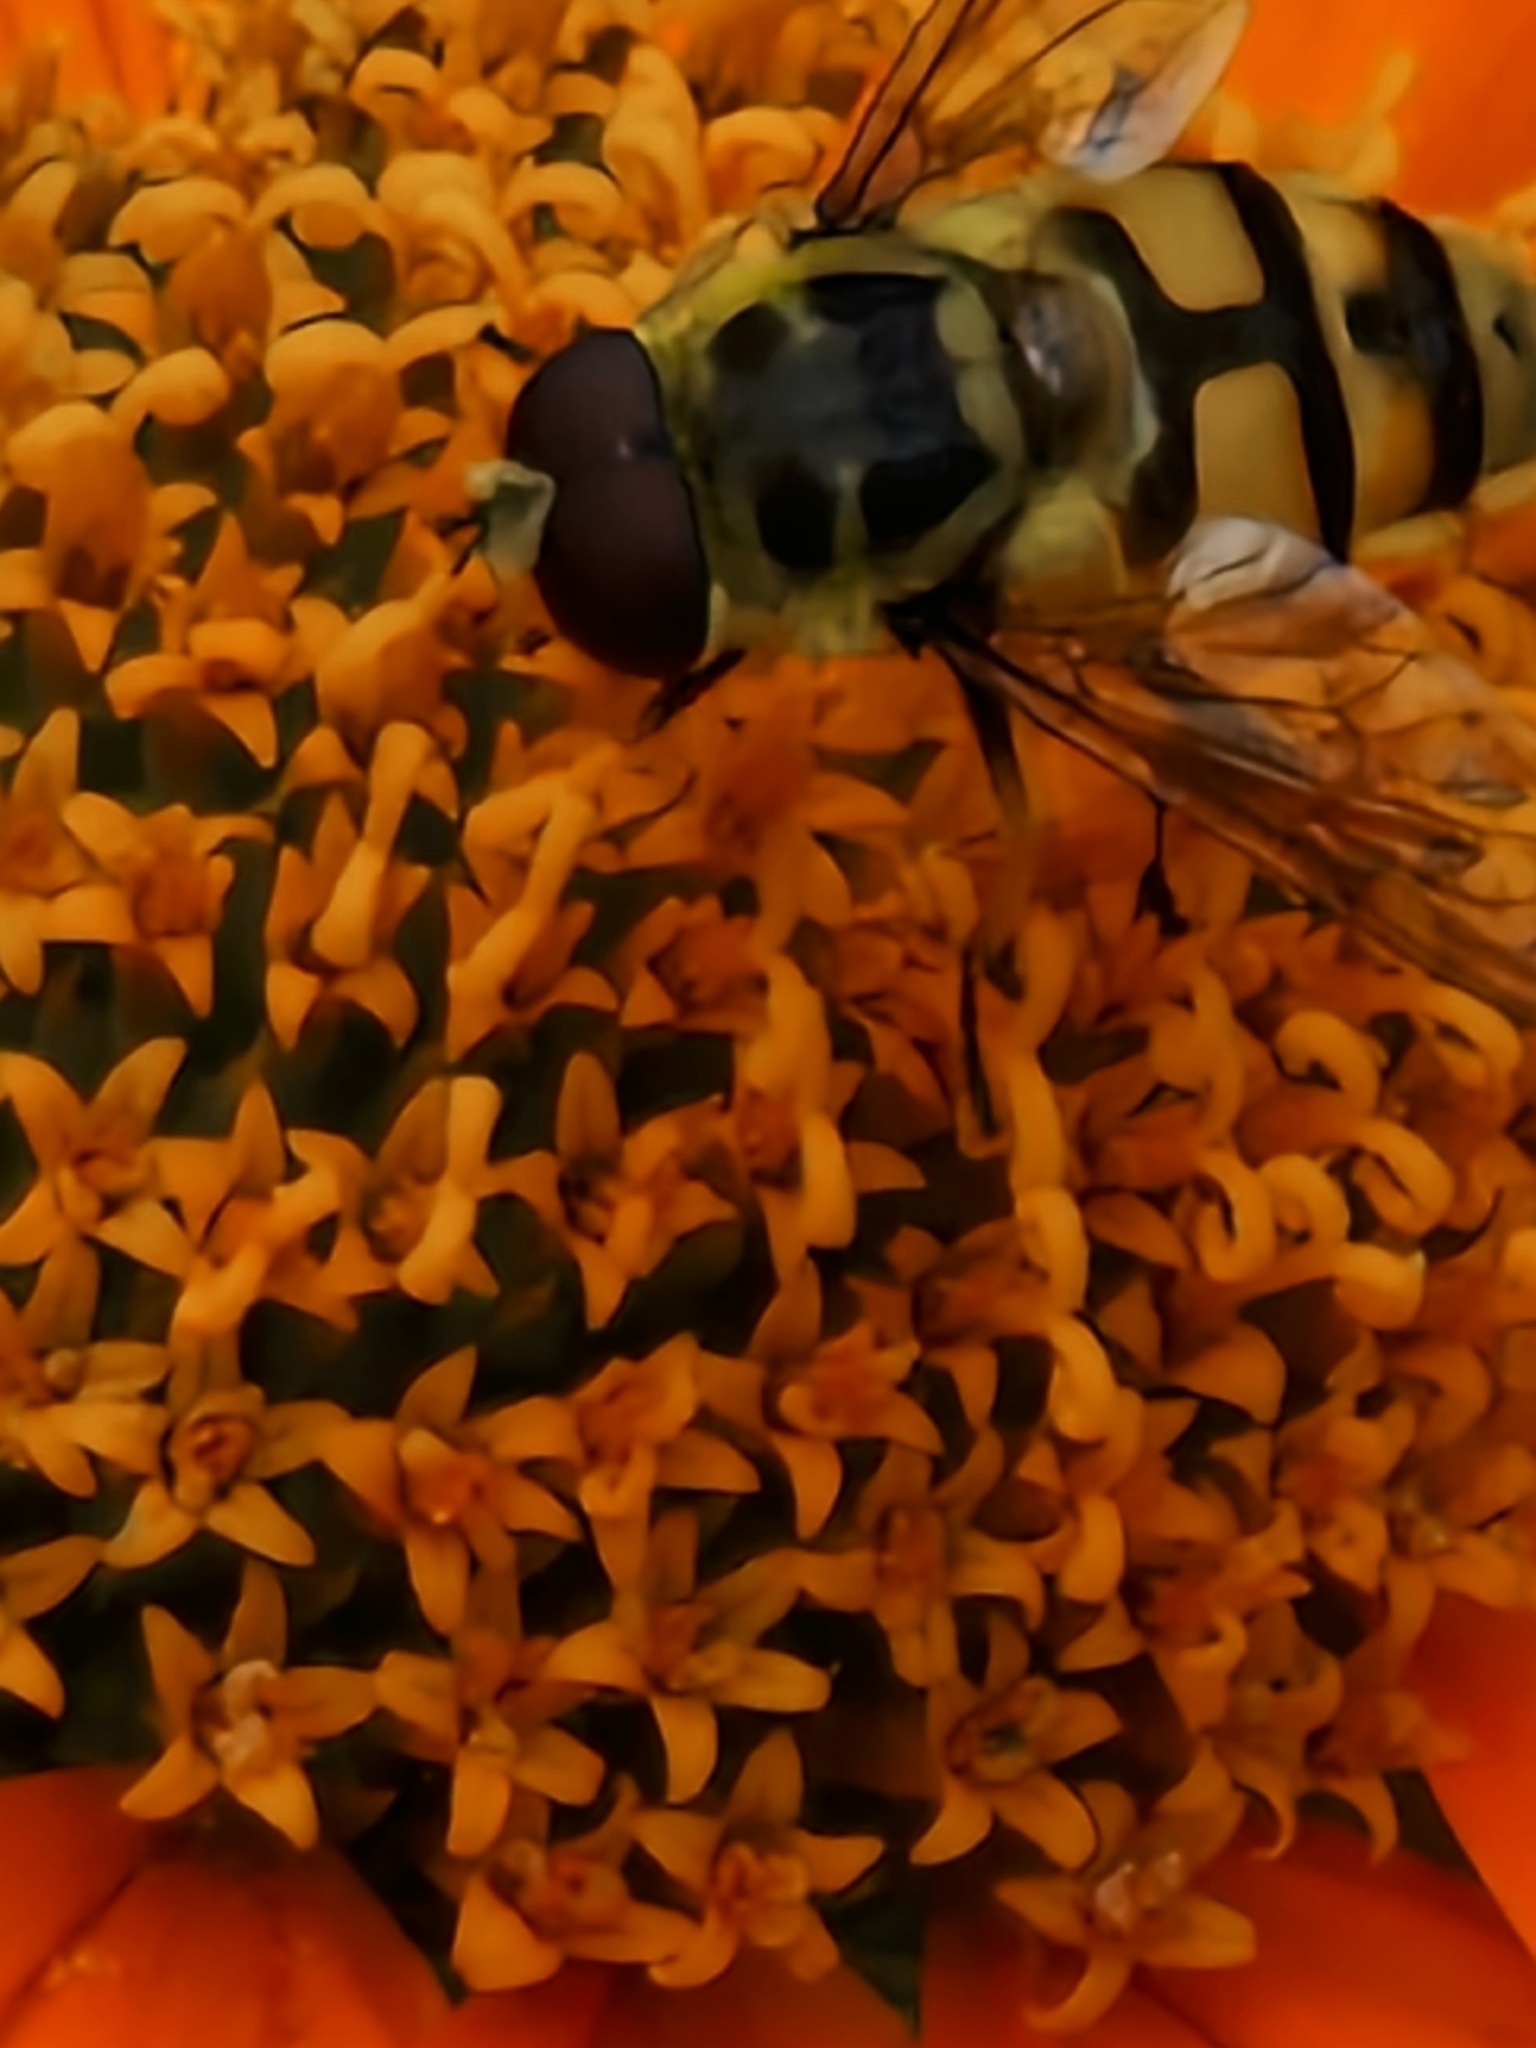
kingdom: Animalia
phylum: Arthropoda
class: Insecta
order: Diptera
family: Syrphidae
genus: Myathropa
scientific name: Myathropa florea
